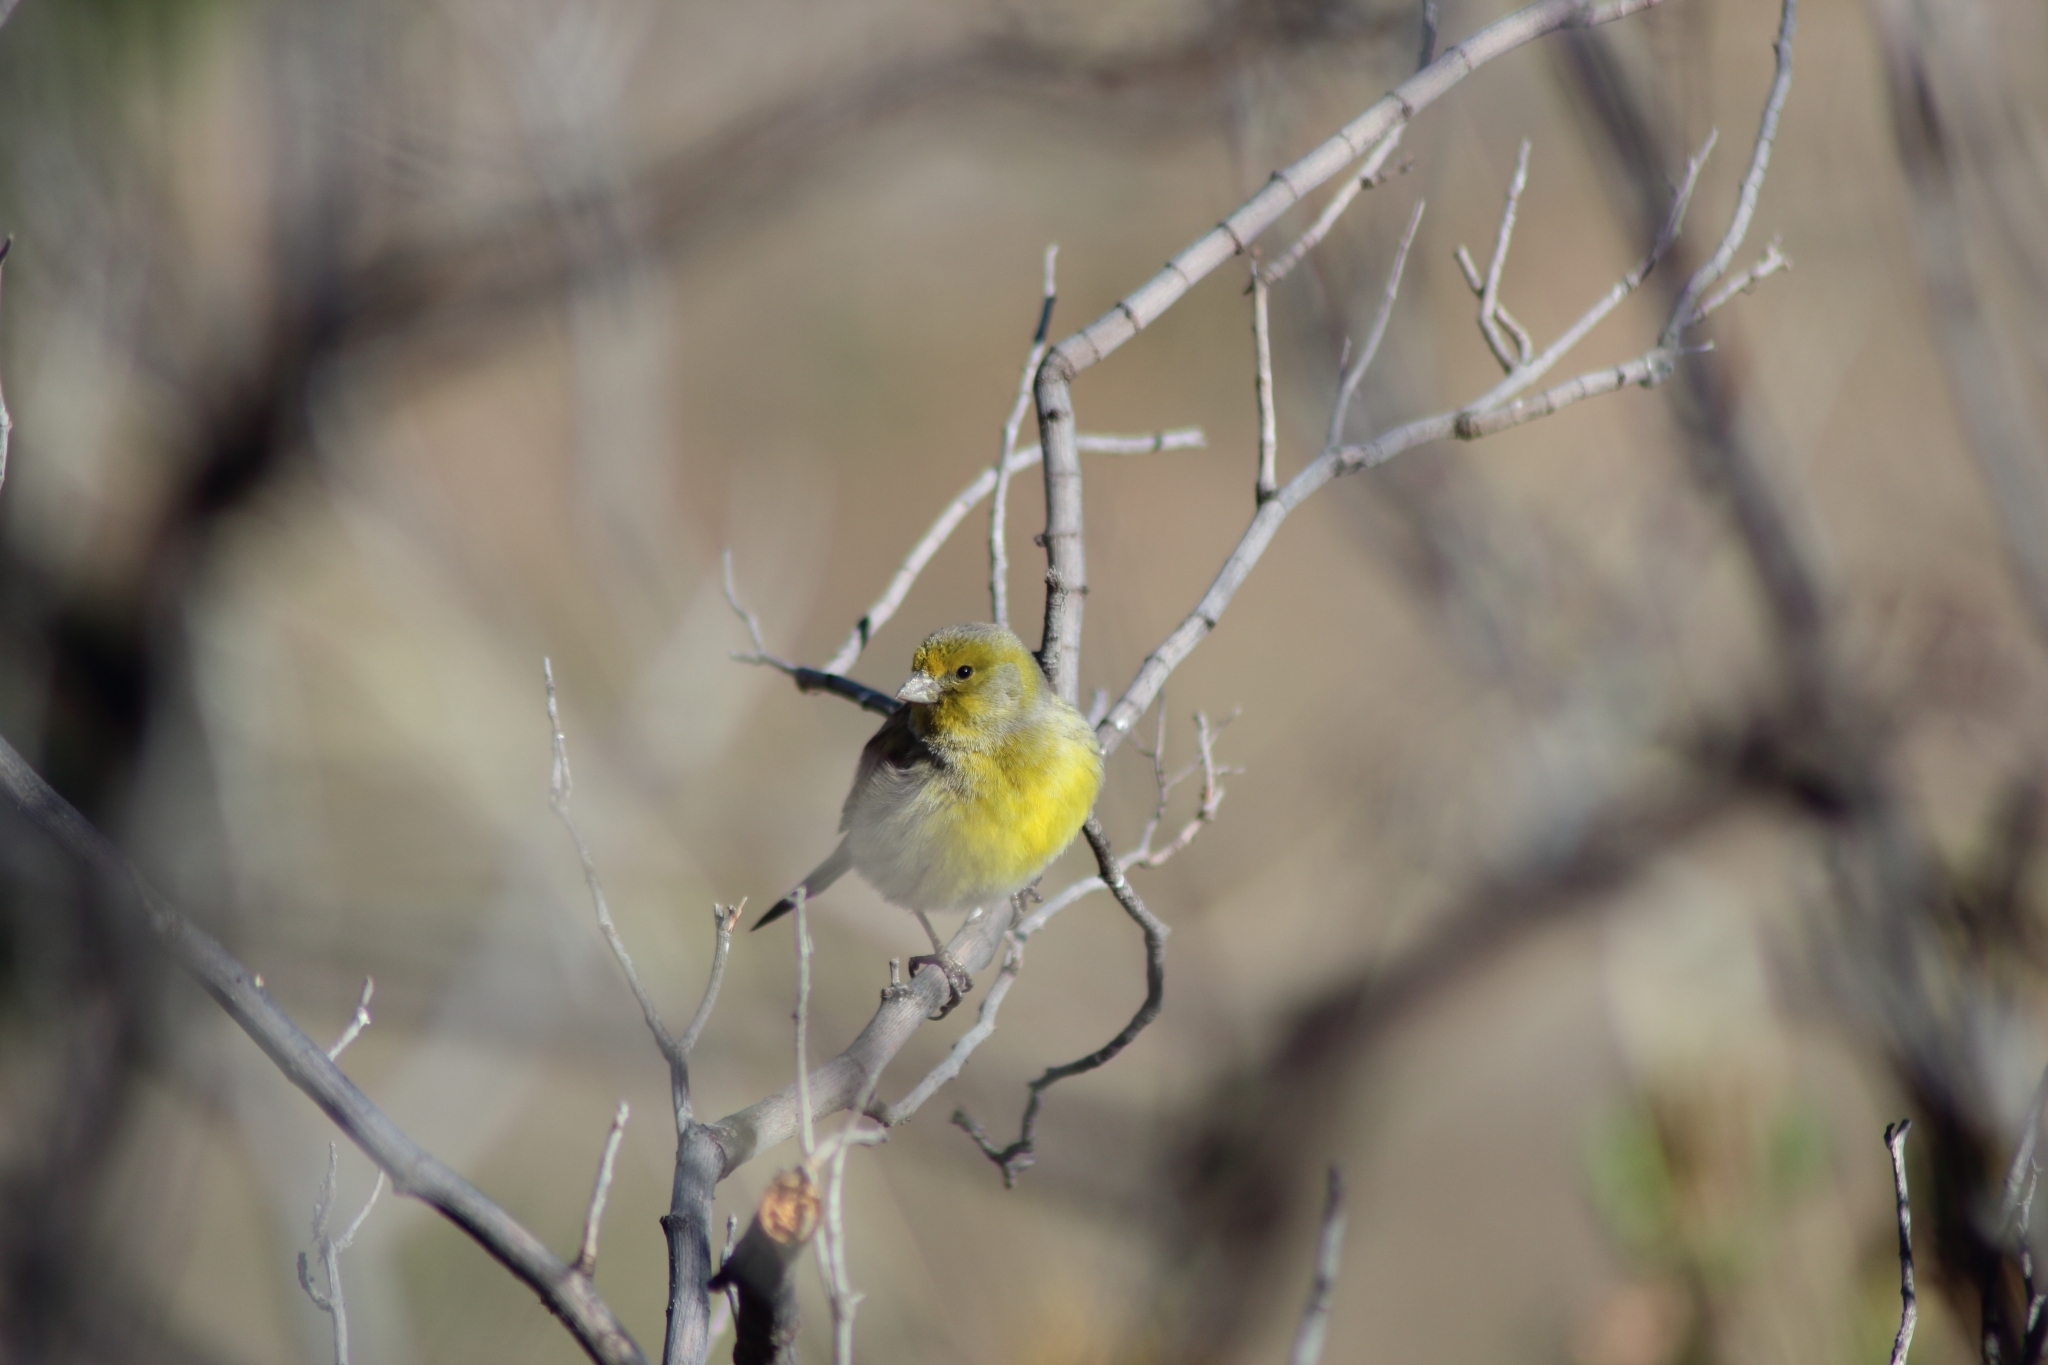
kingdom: Animalia
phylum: Chordata
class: Aves
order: Passeriformes
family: Fringillidae
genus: Serinus
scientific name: Serinus canaria
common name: Atlantic canary
